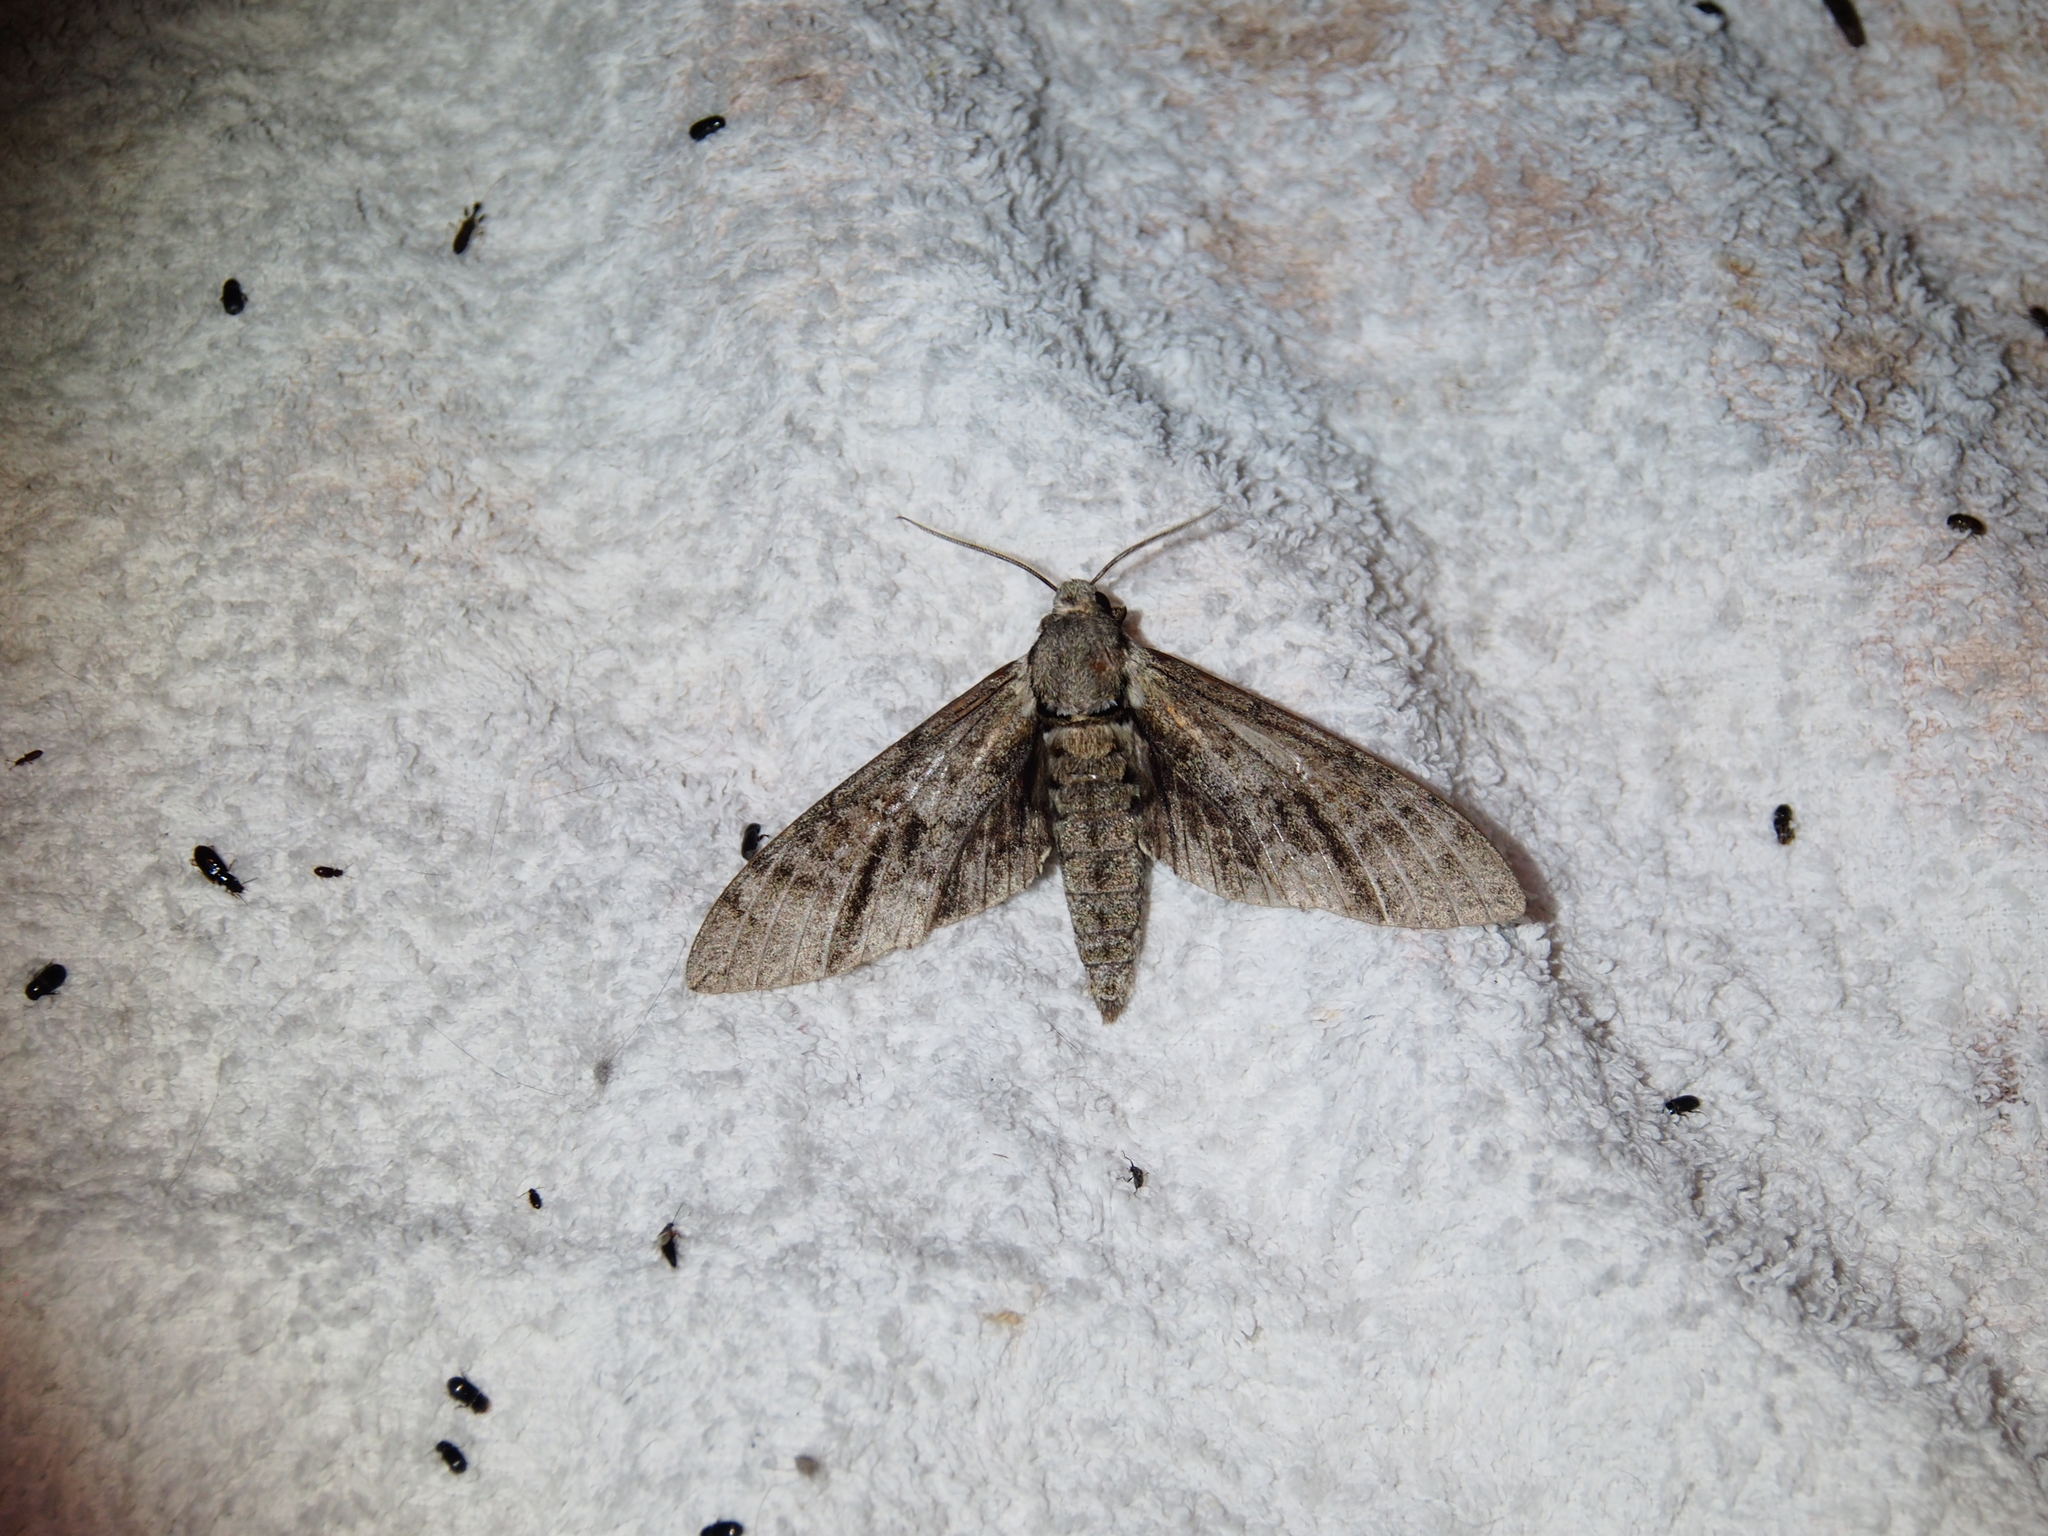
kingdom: Animalia
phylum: Arthropoda
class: Insecta
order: Lepidoptera
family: Sphingidae
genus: Manduca
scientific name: Manduca jasminearum
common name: Ash sphinx
